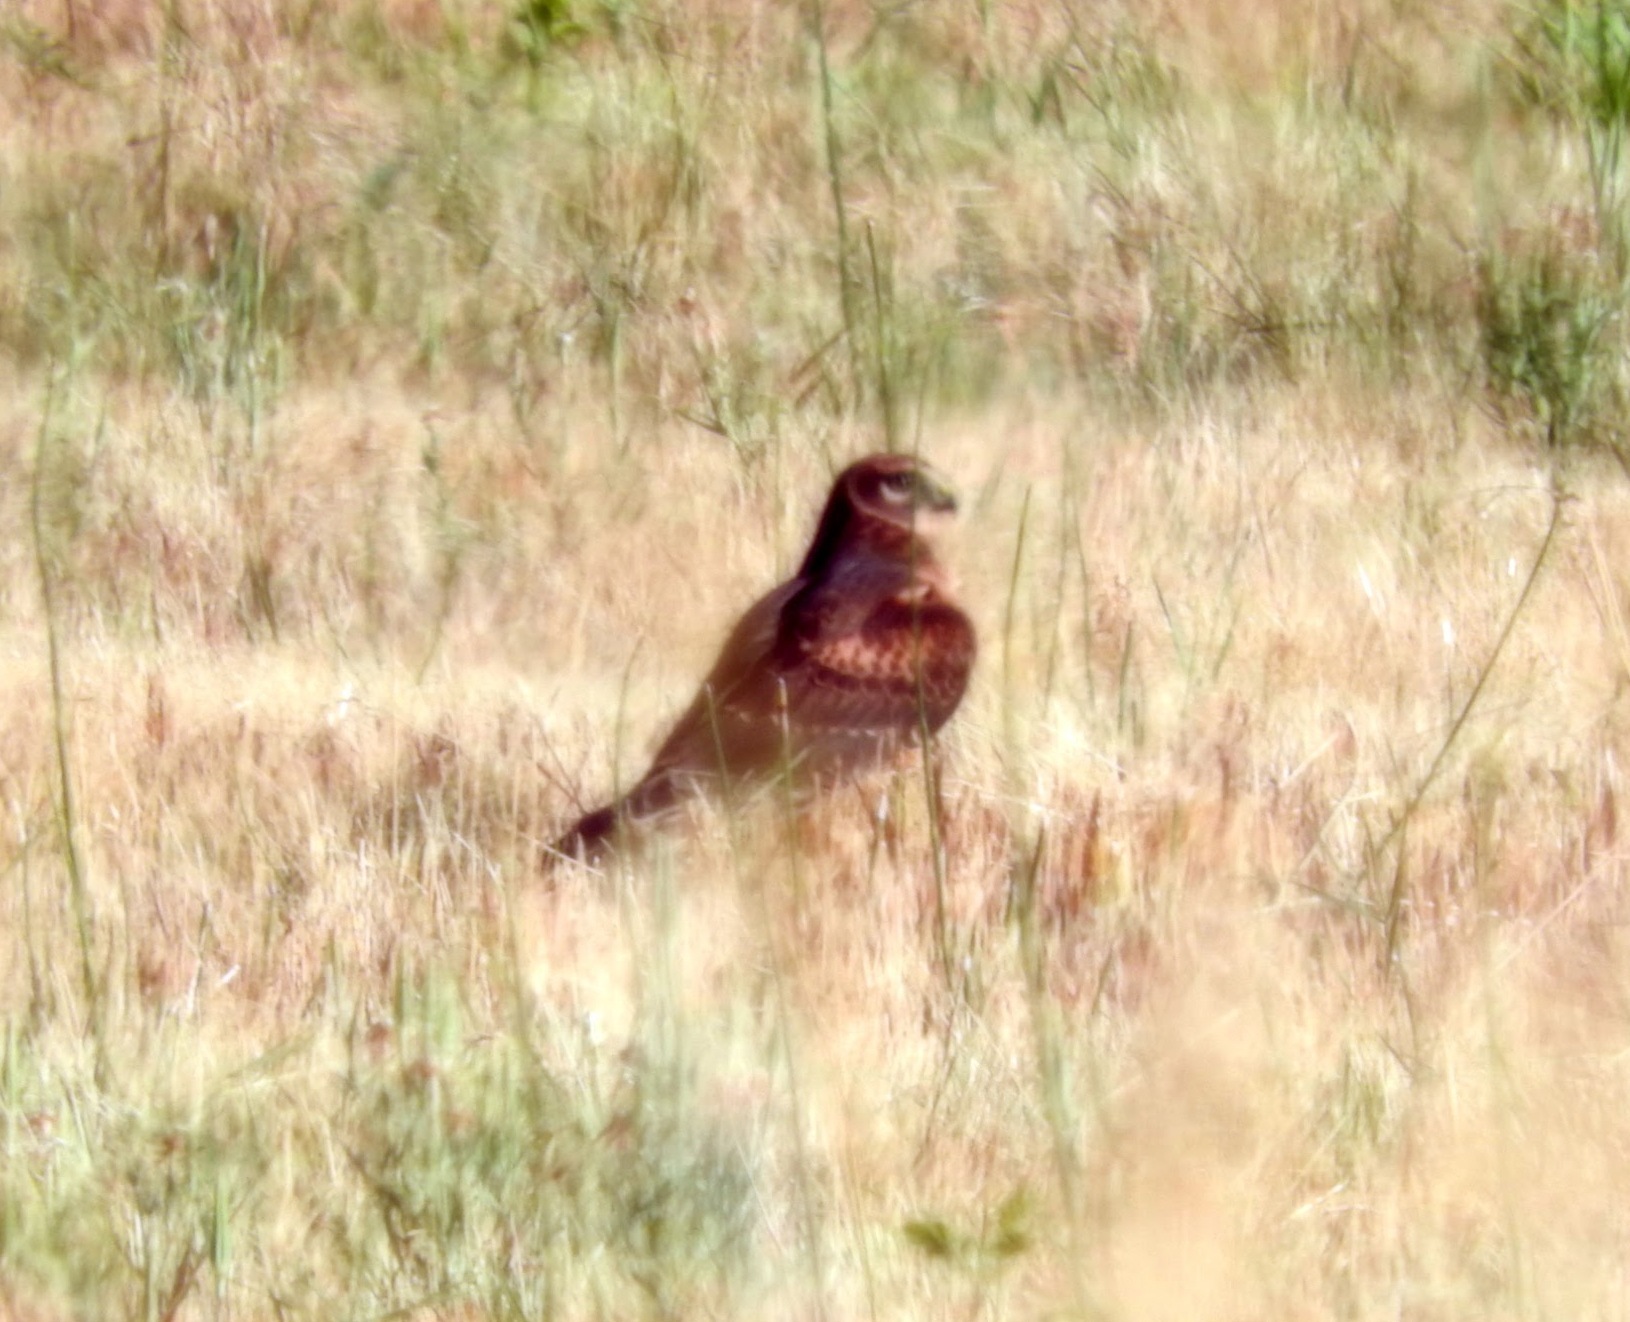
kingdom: Animalia
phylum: Chordata
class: Aves
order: Accipitriformes
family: Accipitridae
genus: Circus
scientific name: Circus cyaneus
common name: Hen harrier
